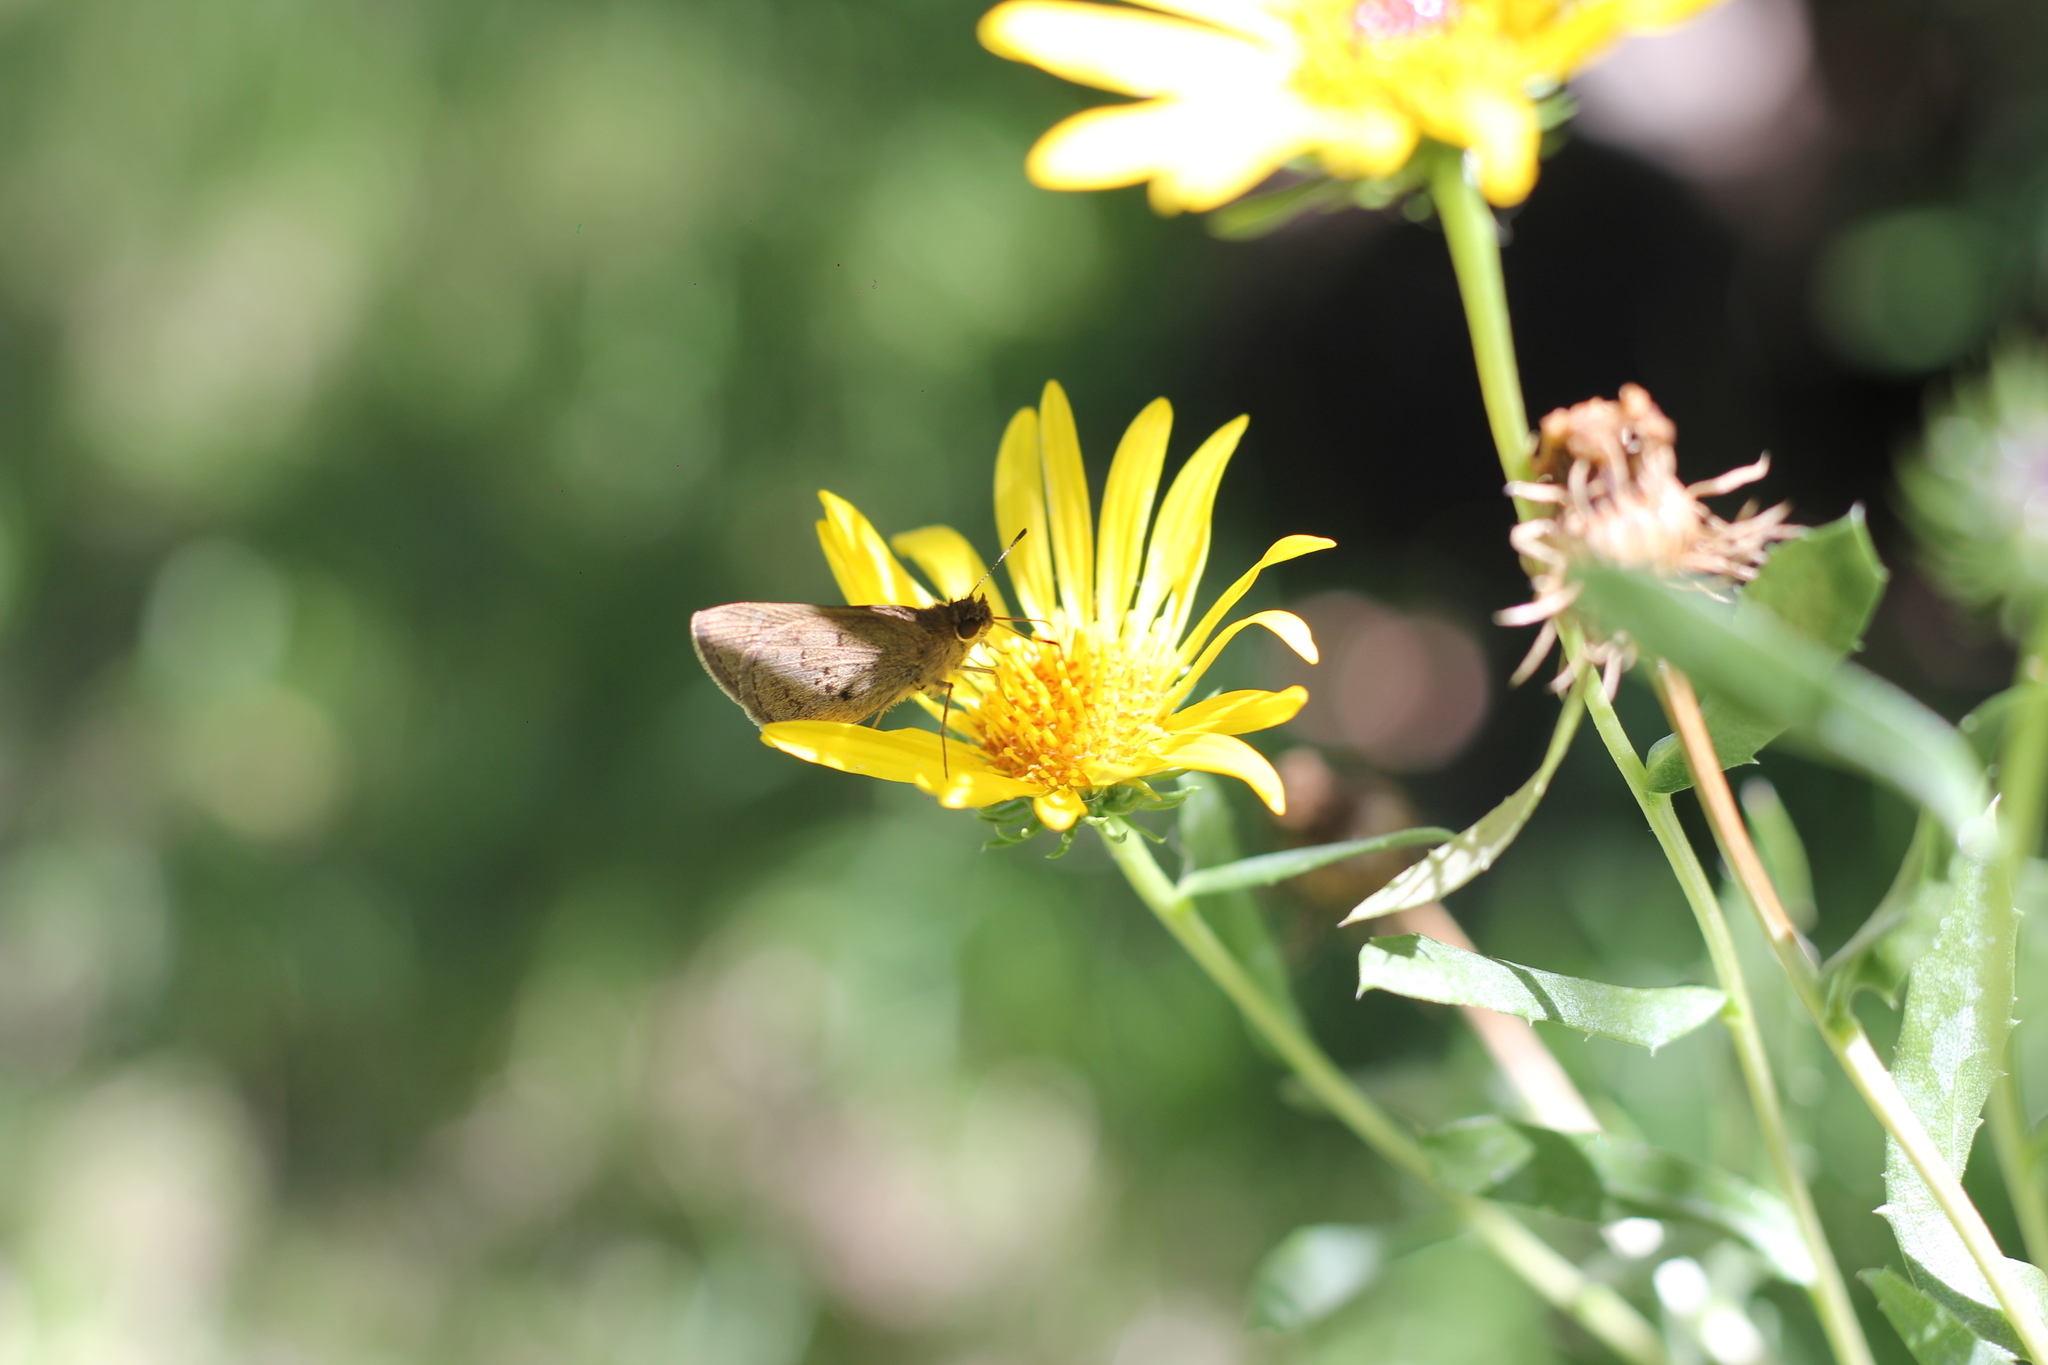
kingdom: Animalia
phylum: Arthropoda
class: Insecta
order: Lepidoptera
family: Hesperiidae
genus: Cymaenes
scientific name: Cymaenes gisca
